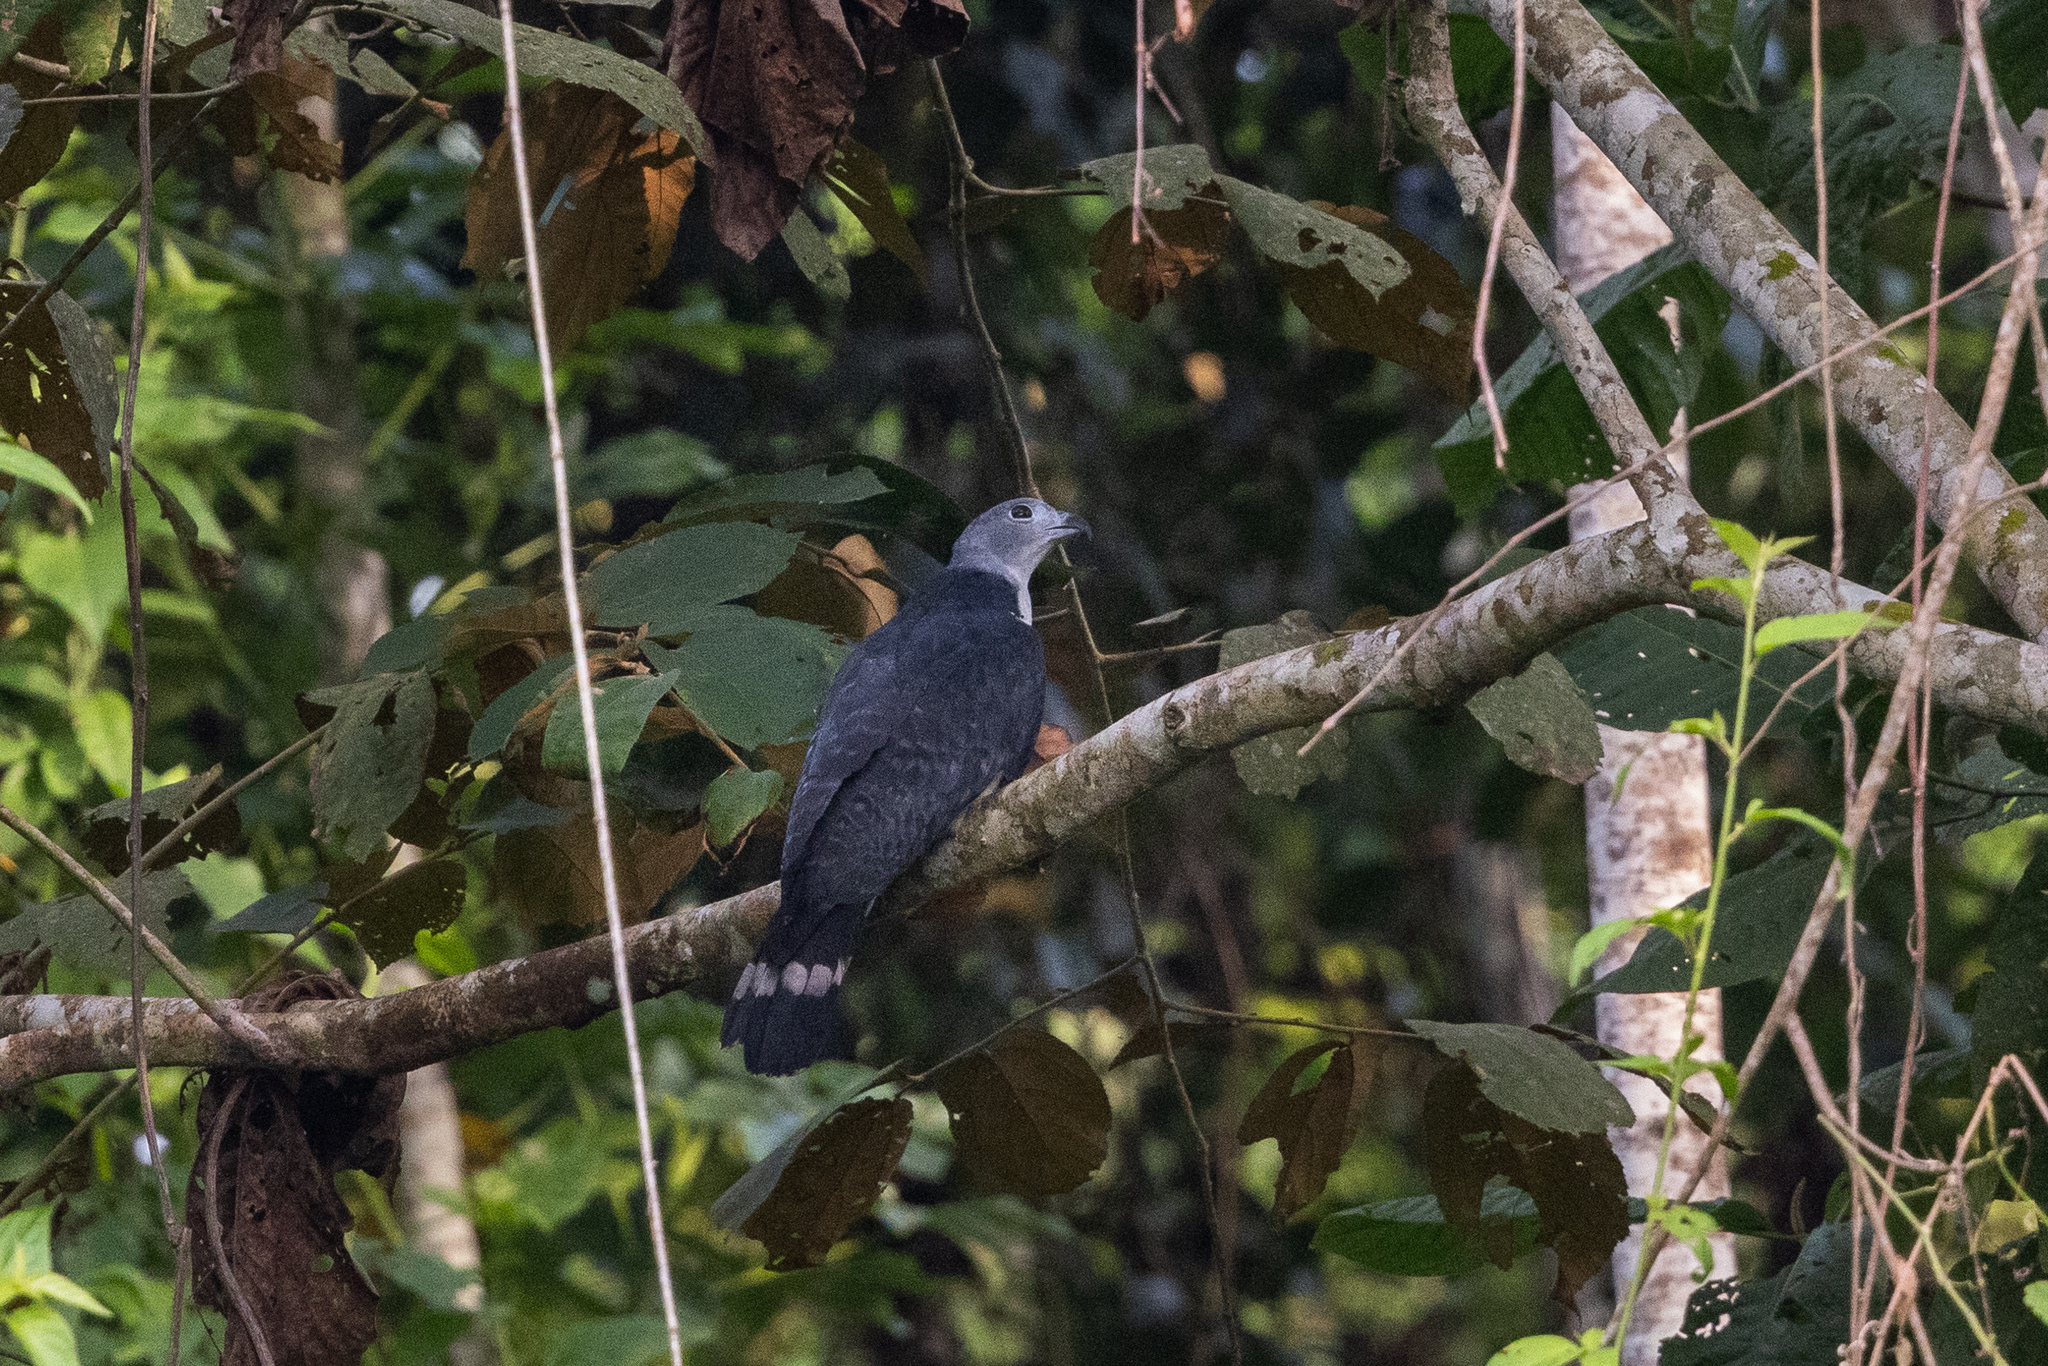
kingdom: Animalia
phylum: Chordata
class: Aves
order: Accipitriformes
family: Accipitridae
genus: Leptodon
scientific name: Leptodon cayanensis
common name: Gray-headed kite
